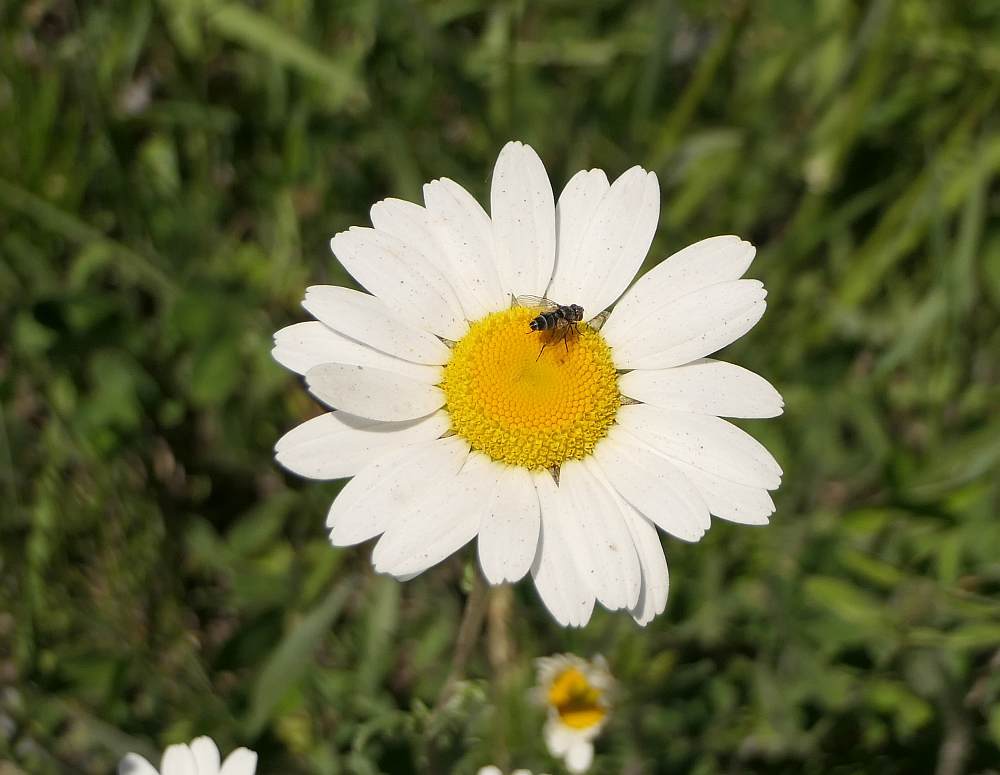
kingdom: Plantae
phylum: Tracheophyta
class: Magnoliopsida
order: Asterales
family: Asteraceae
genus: Leucanthemum
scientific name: Leucanthemum vulgare
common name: Oxeye daisy
